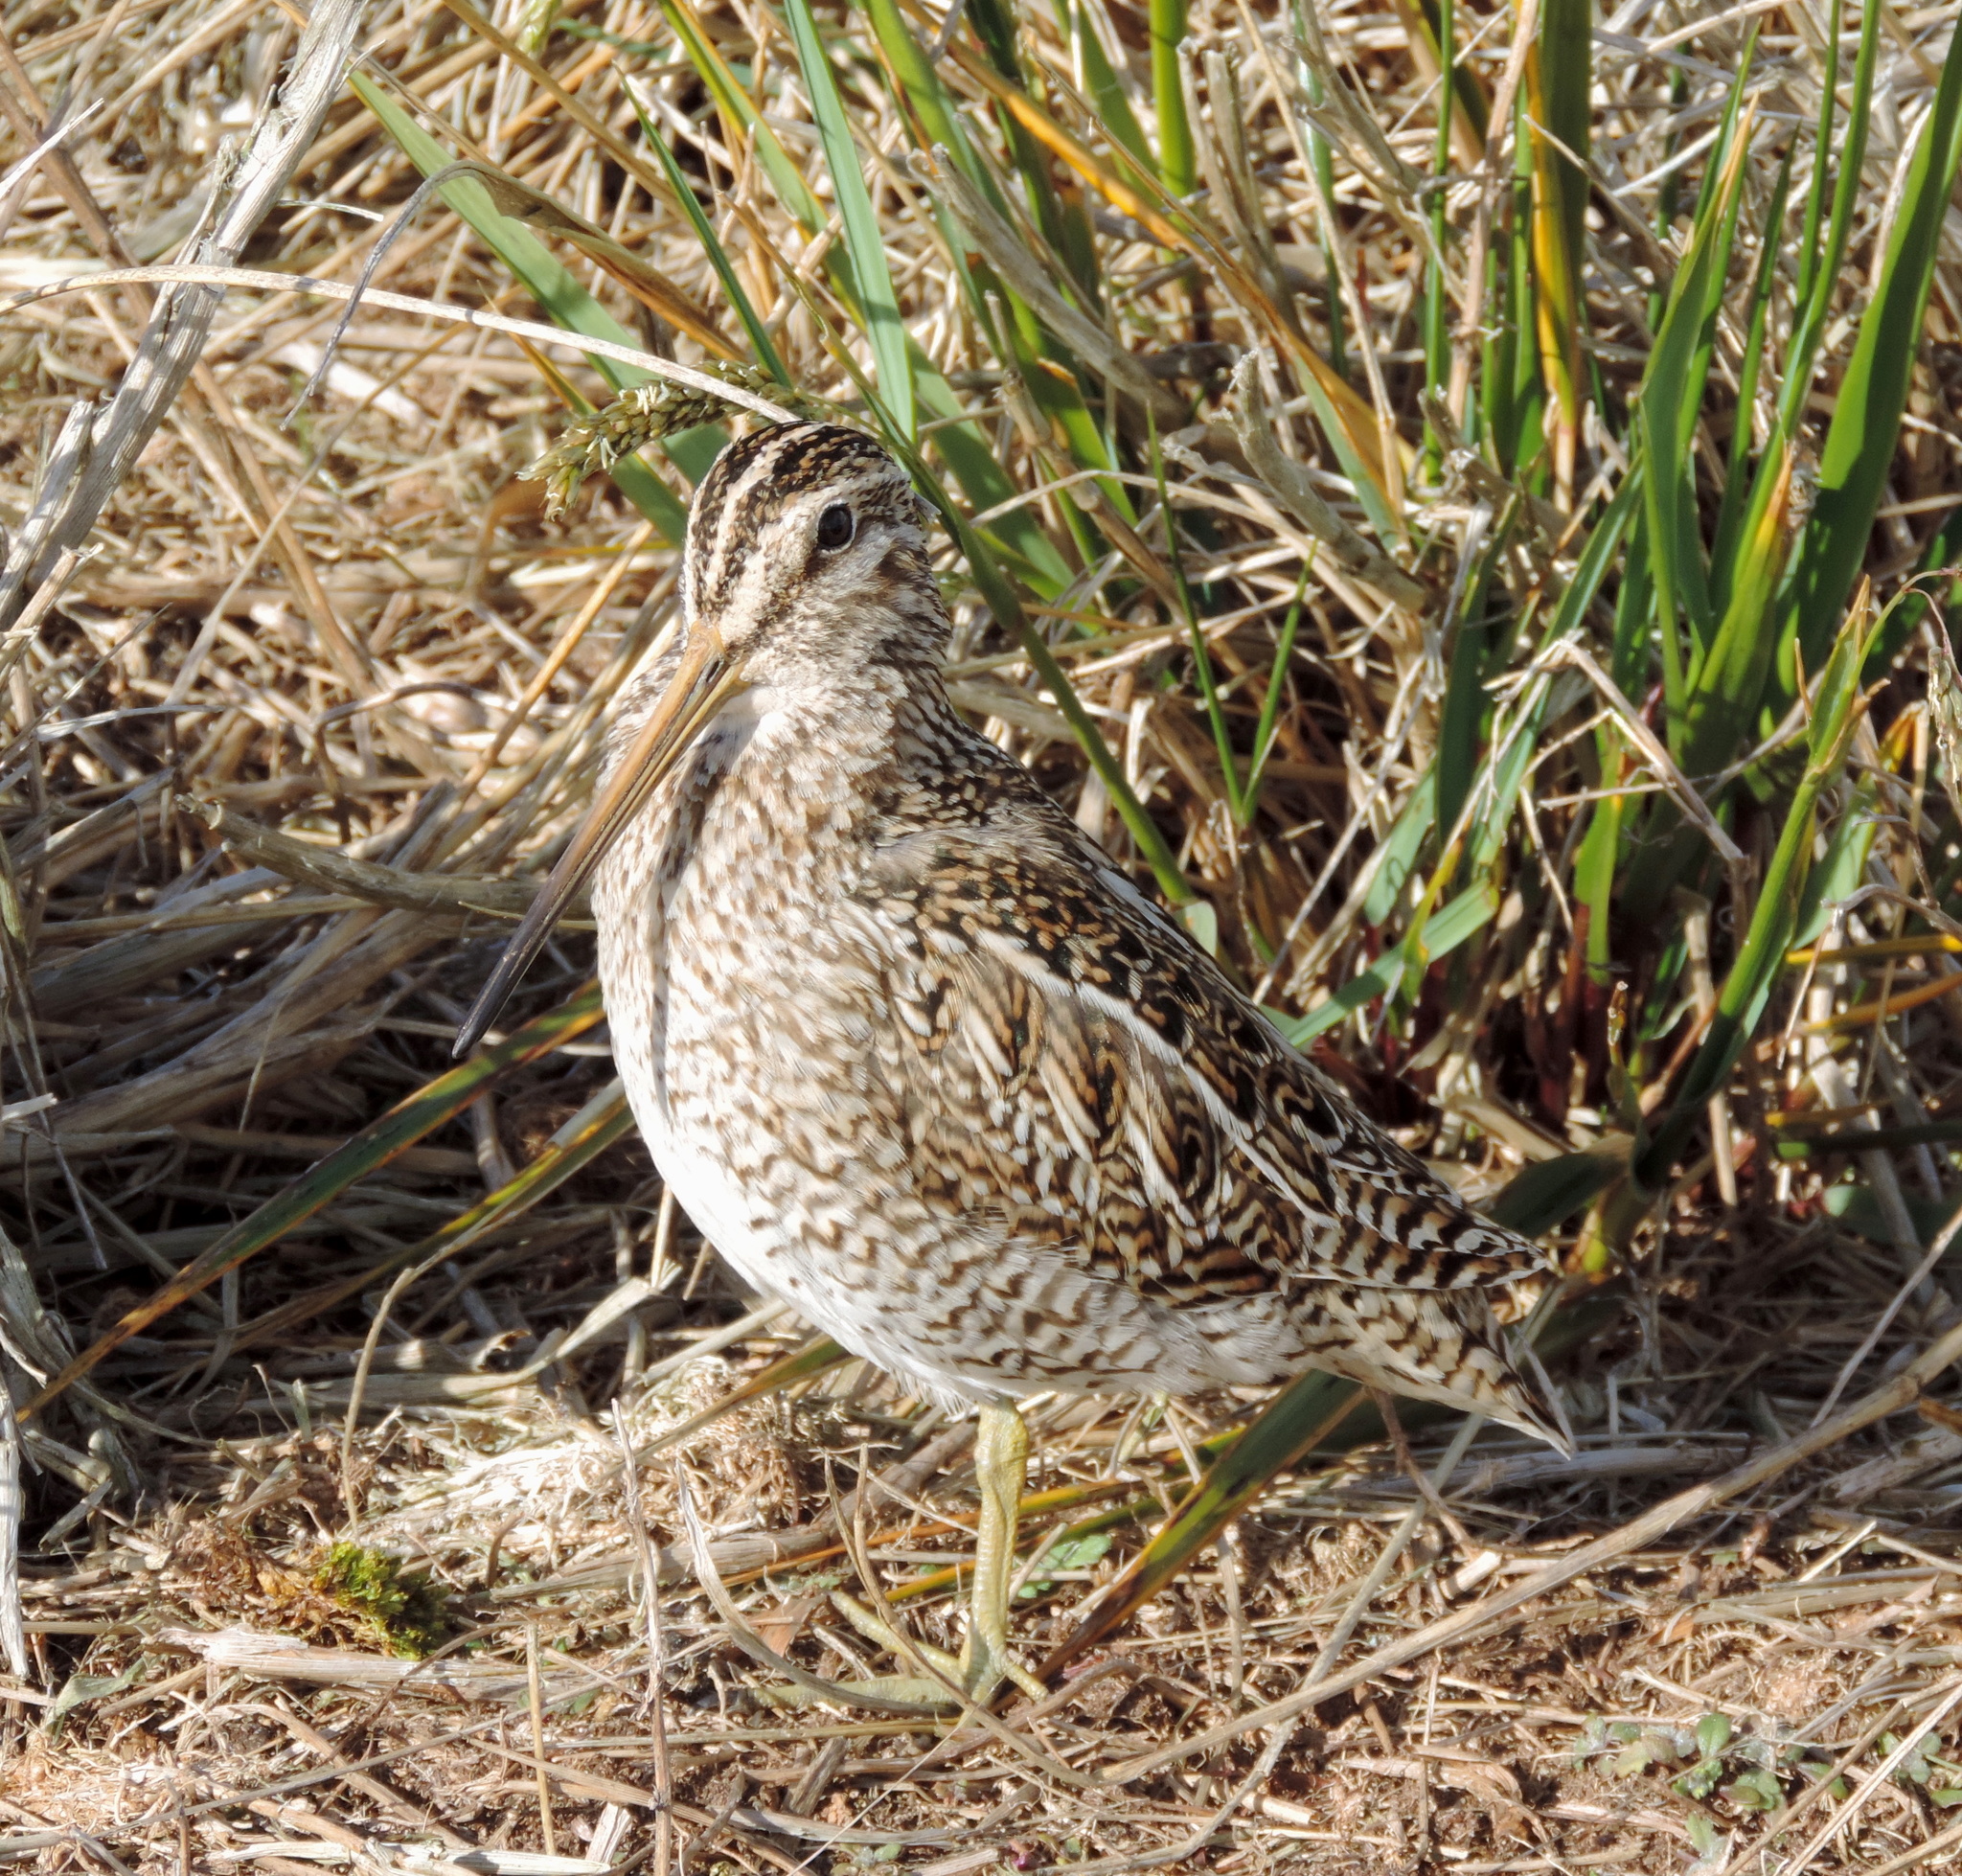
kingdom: Animalia
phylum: Chordata
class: Aves
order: Charadriiformes
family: Scolopacidae
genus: Gallinago
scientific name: Gallinago magellanica
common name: Magellanic snipe
